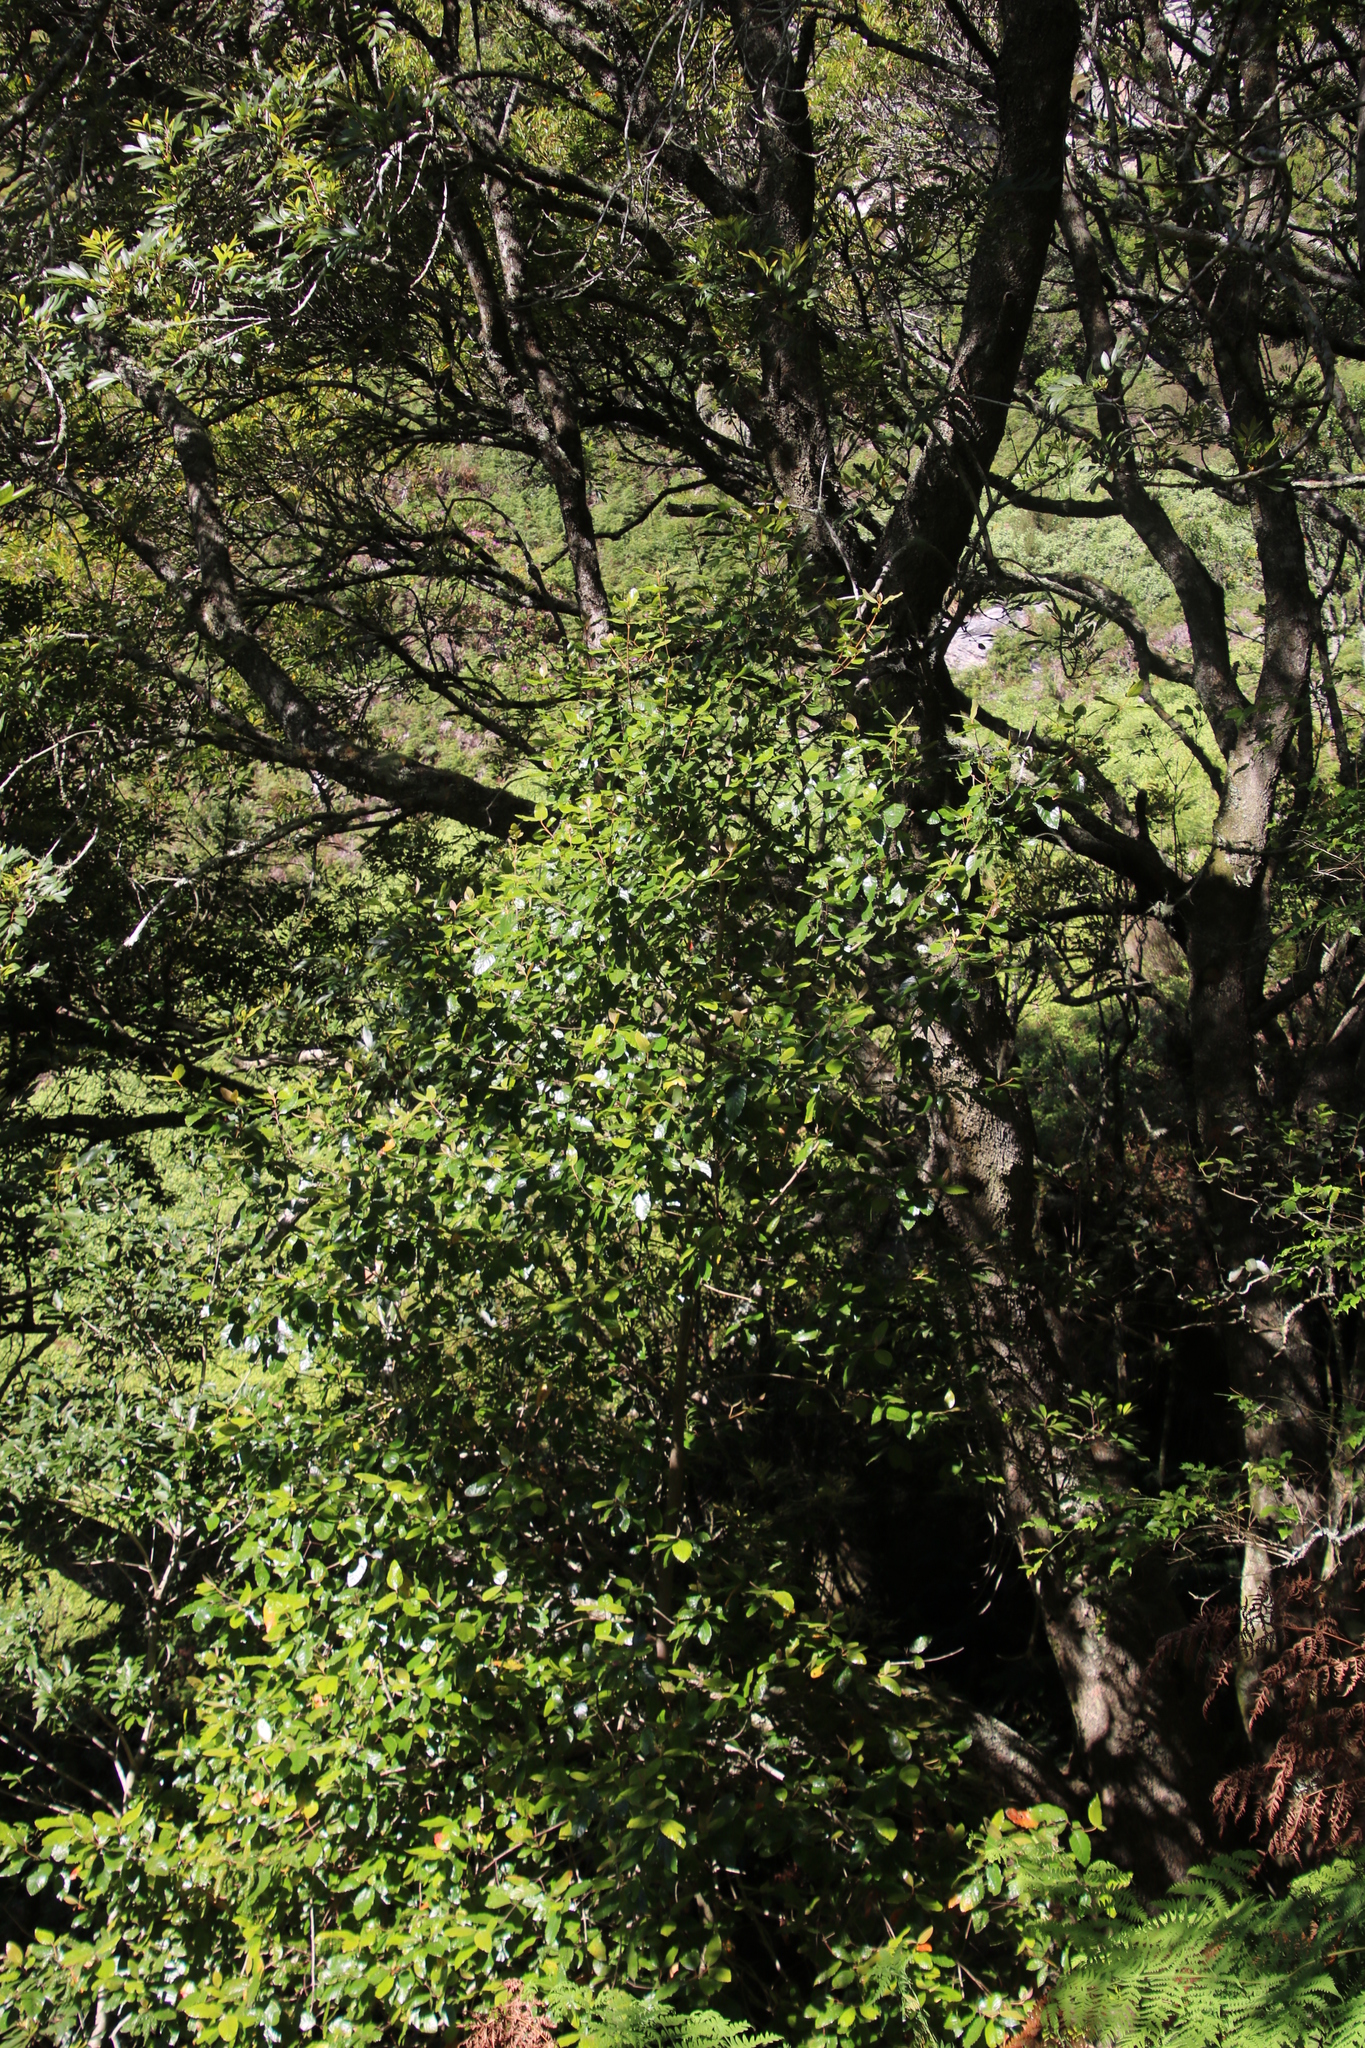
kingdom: Plantae
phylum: Tracheophyta
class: Magnoliopsida
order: Cornales
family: Curtisiaceae
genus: Curtisia
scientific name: Curtisia dentata
